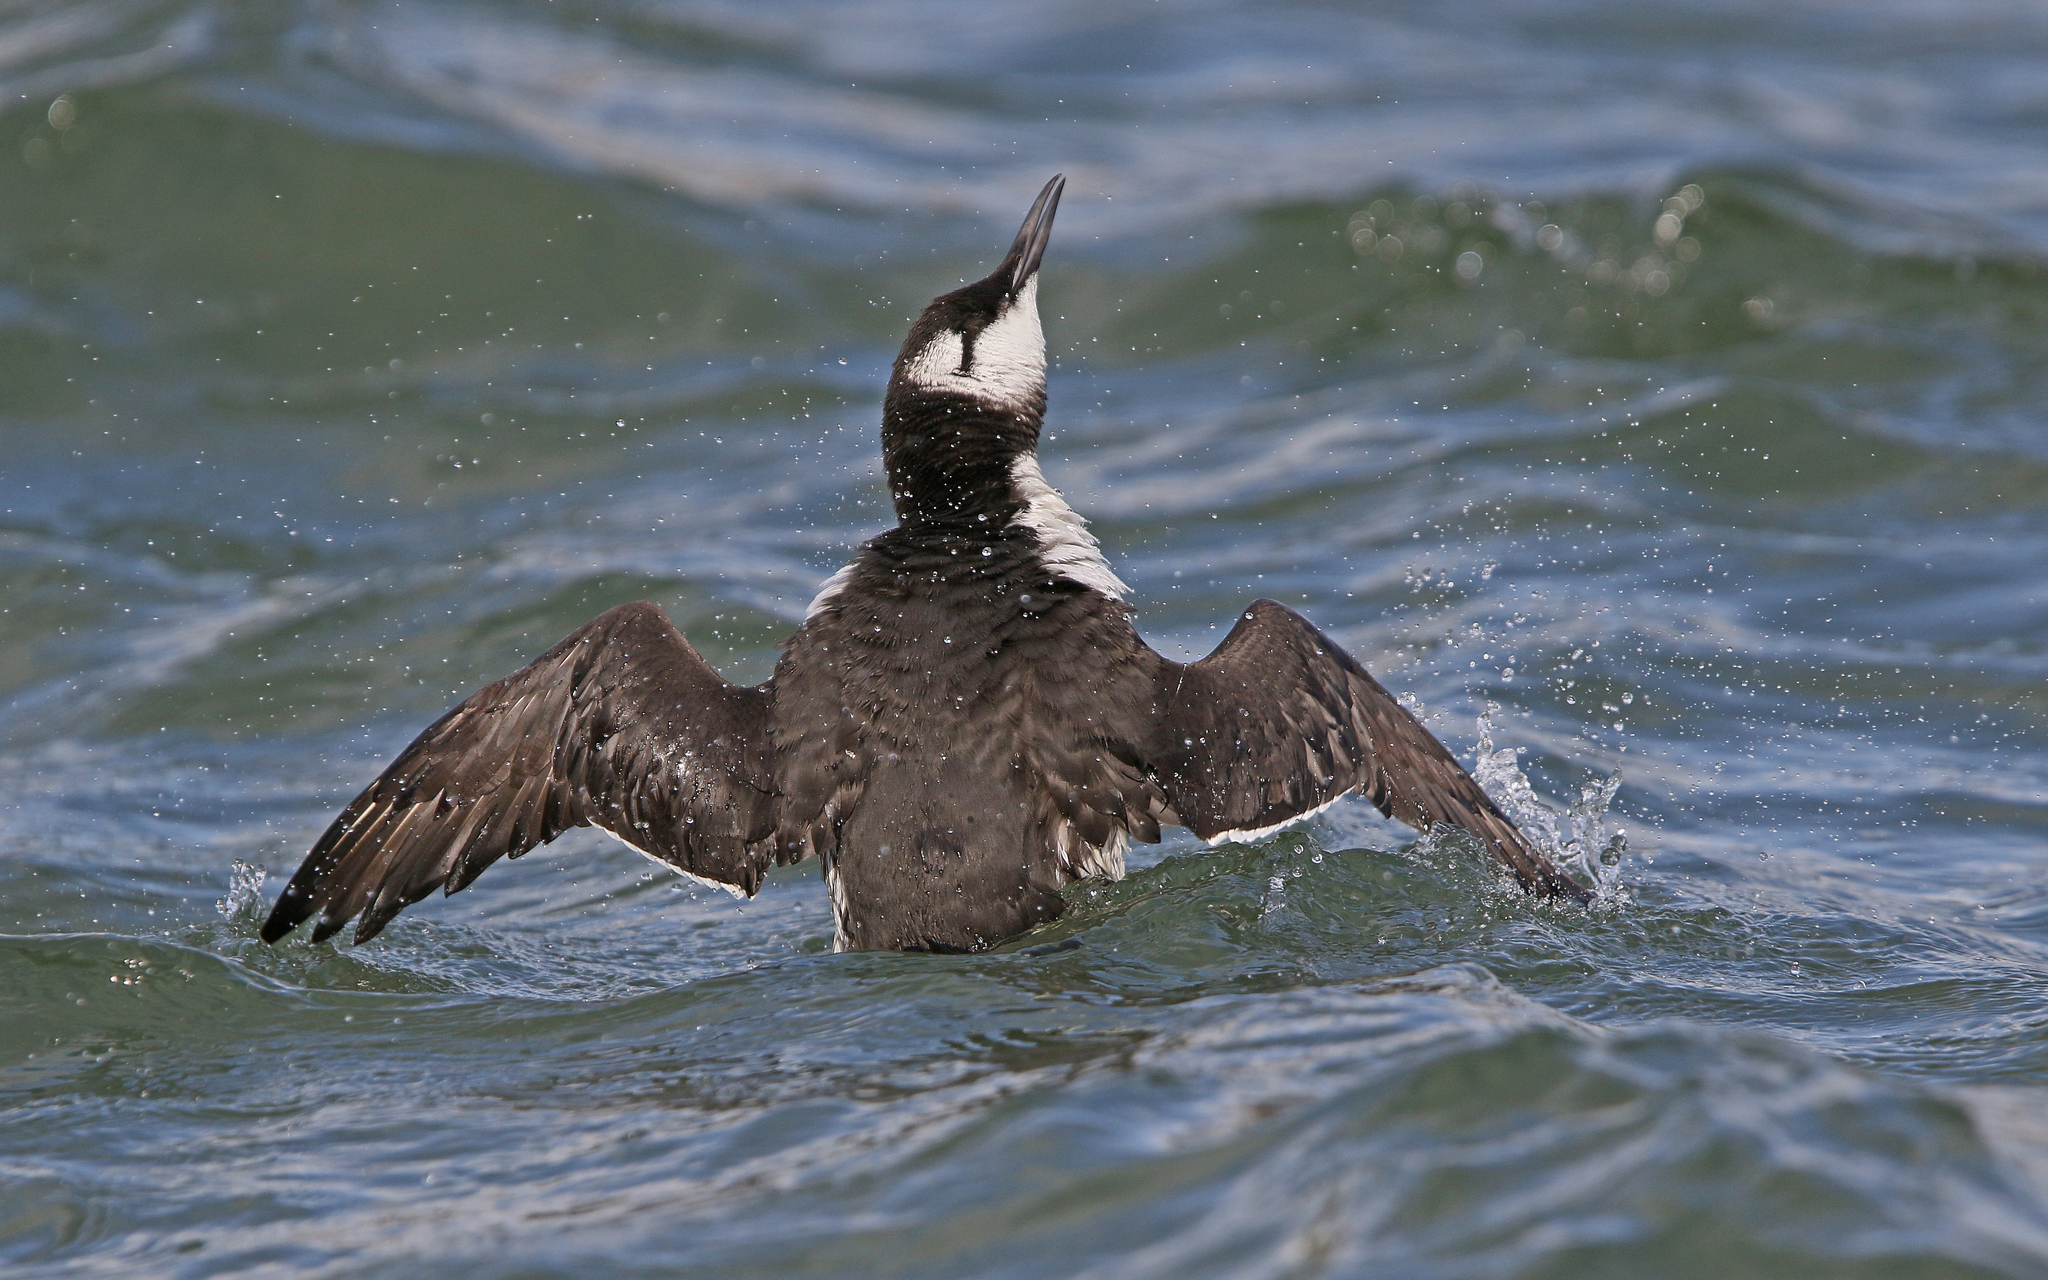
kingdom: Animalia
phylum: Chordata
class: Aves
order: Charadriiformes
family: Alcidae
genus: Uria
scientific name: Uria aalge
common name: Common murre
